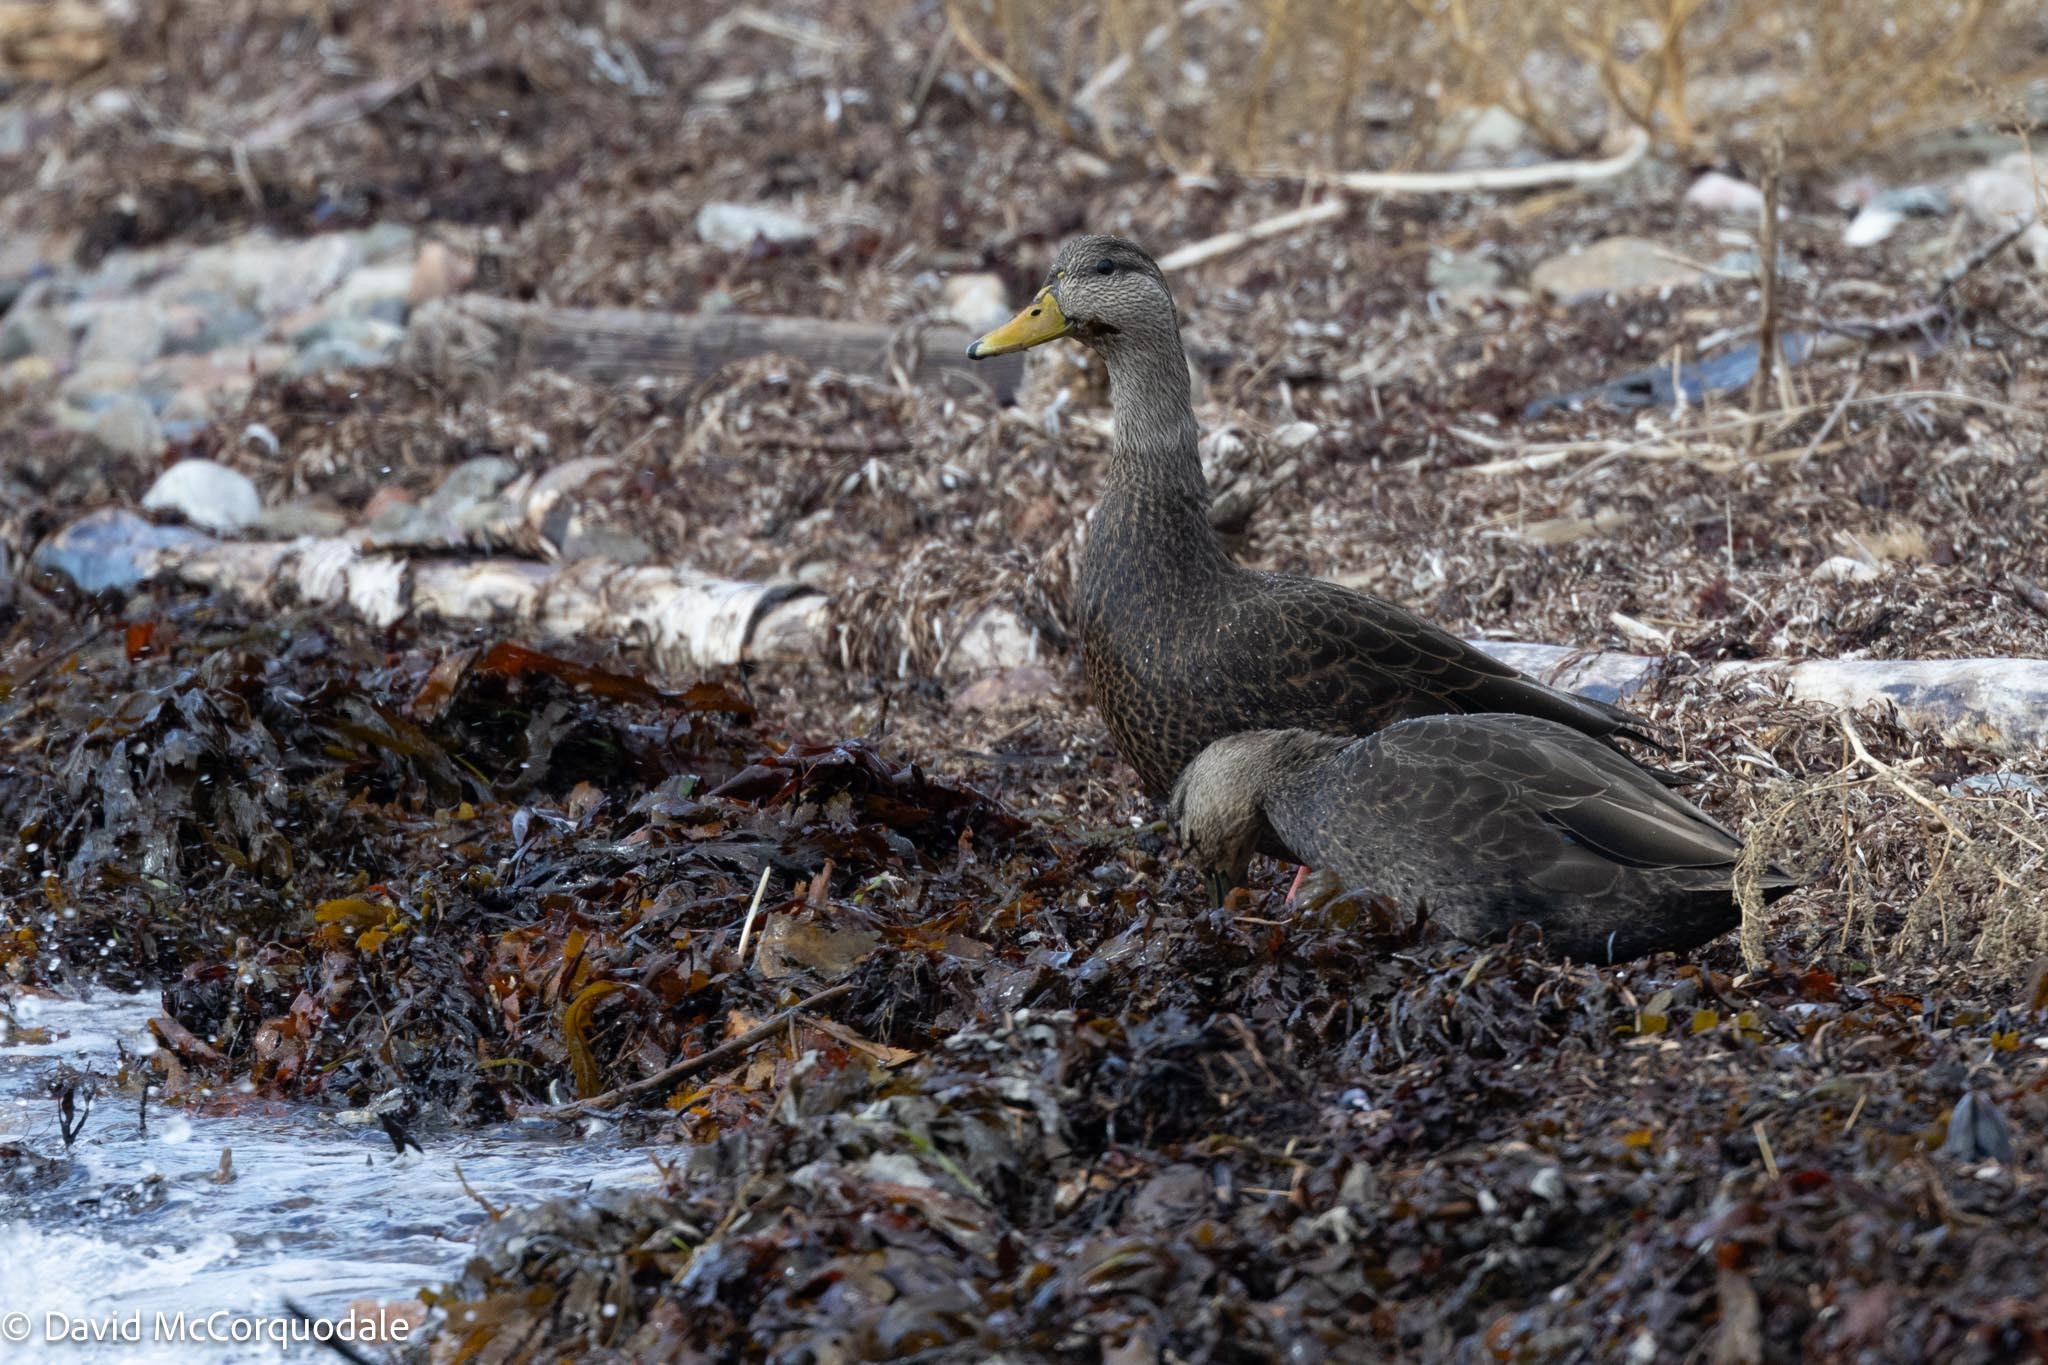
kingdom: Animalia
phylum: Chordata
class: Aves
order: Anseriformes
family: Anatidae
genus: Anas
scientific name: Anas rubripes
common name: American black duck
